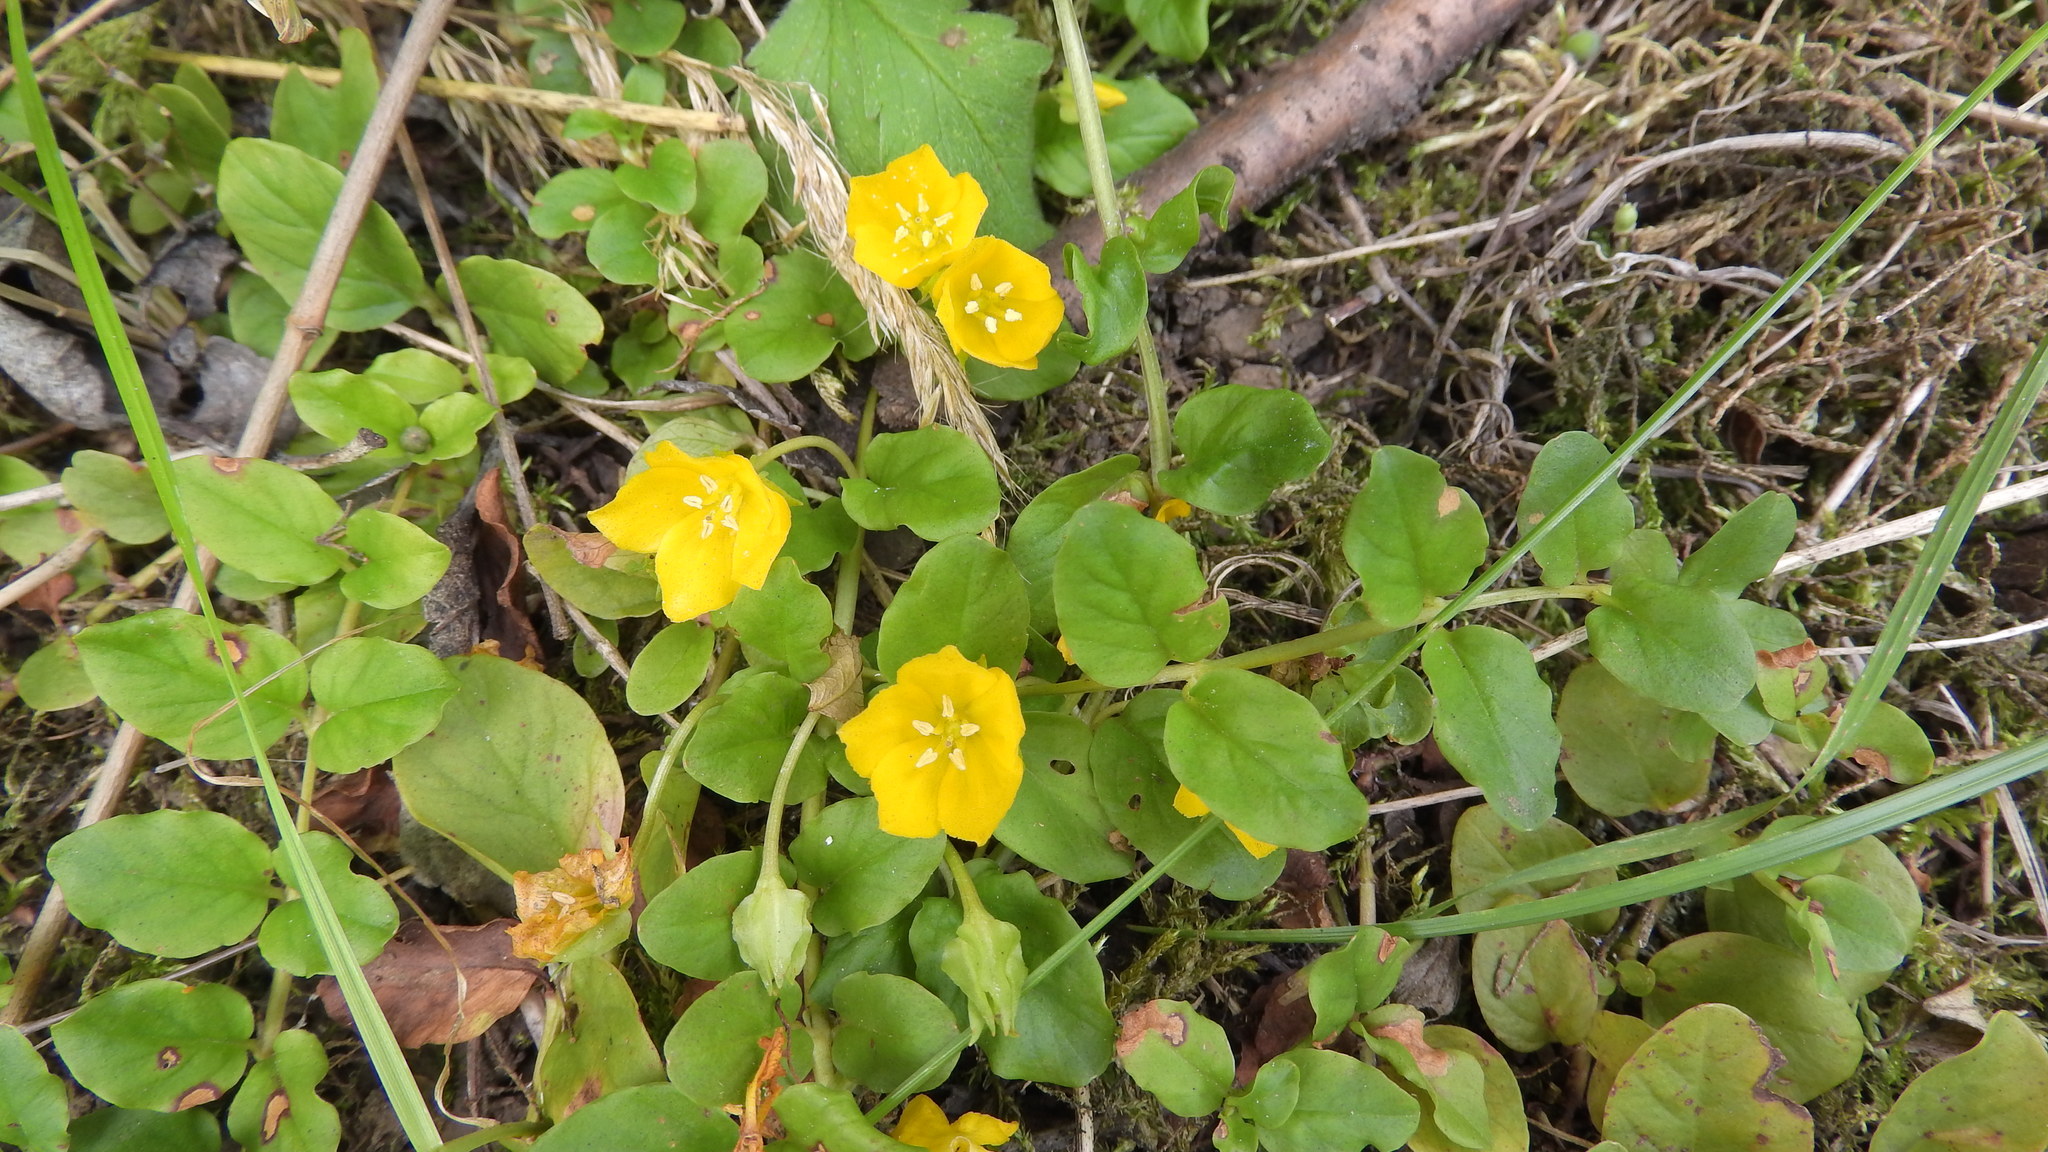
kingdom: Plantae
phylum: Tracheophyta
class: Magnoliopsida
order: Ericales
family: Primulaceae
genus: Lysimachia
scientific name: Lysimachia nummularia
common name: Moneywort
